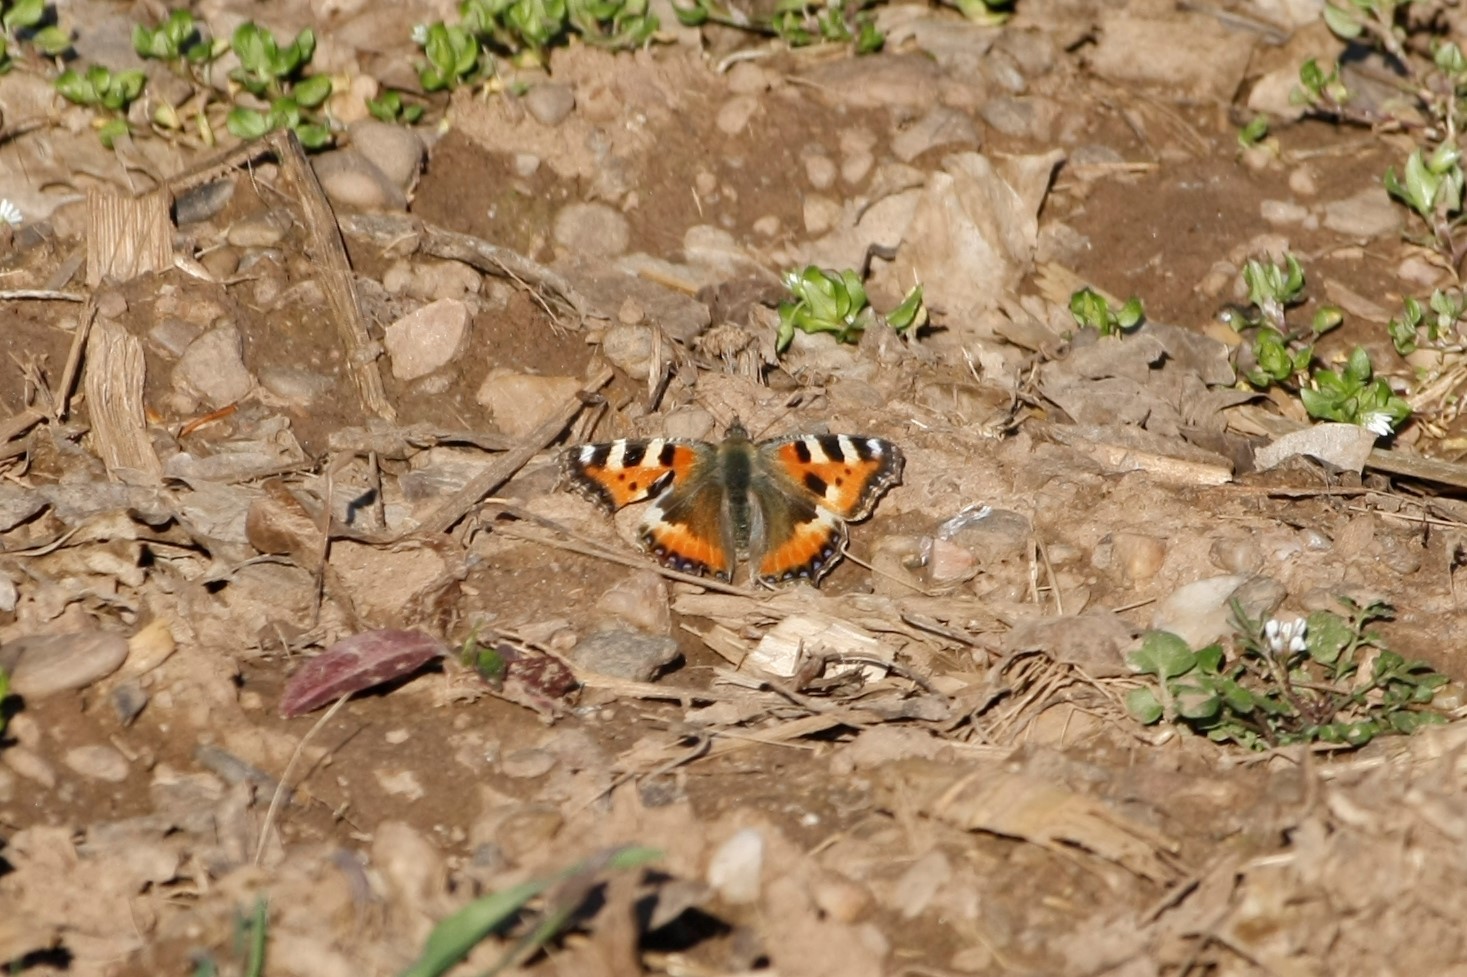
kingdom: Animalia
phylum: Arthropoda
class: Insecta
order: Lepidoptera
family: Nymphalidae
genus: Aglais
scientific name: Aglais urticae
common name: Small tortoiseshell
